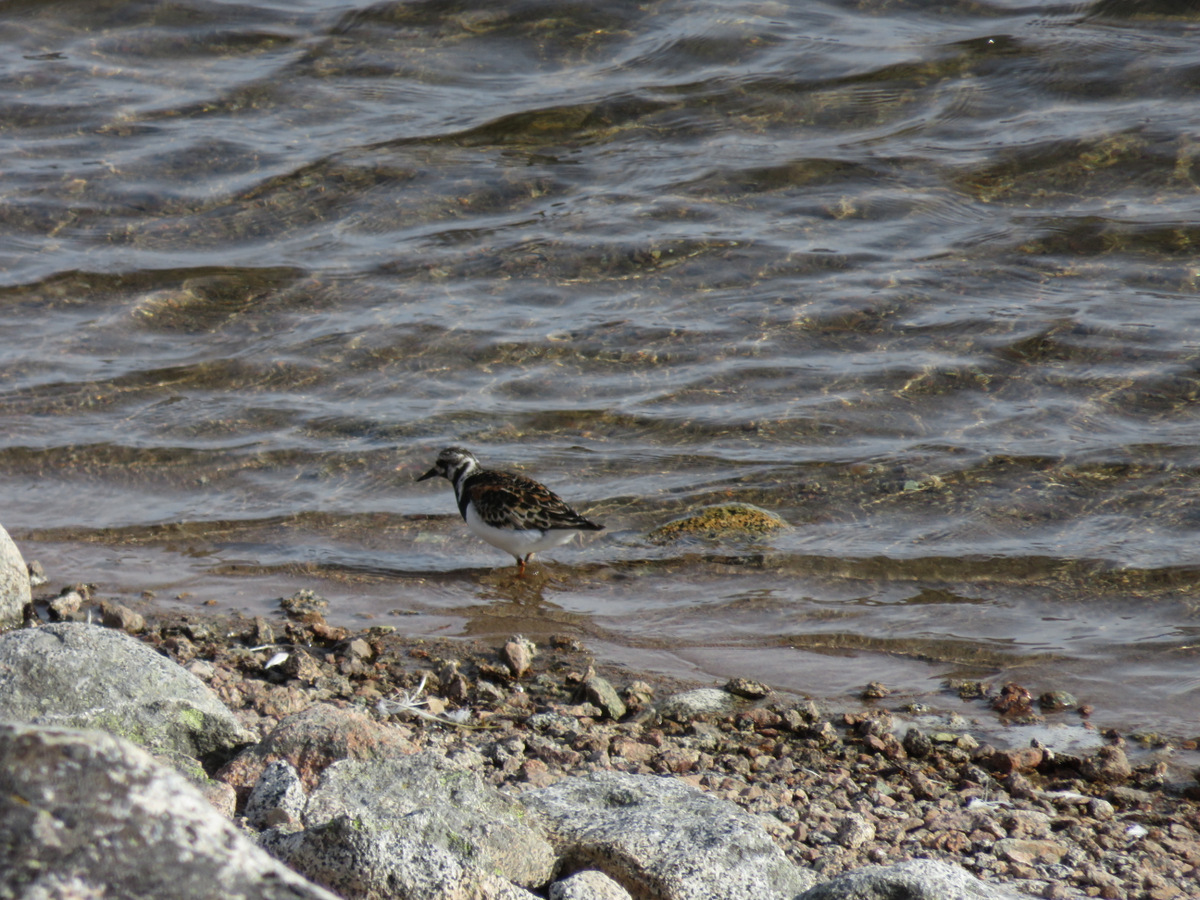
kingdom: Animalia
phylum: Chordata
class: Aves
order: Charadriiformes
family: Scolopacidae
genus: Arenaria
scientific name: Arenaria interpres
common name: Ruddy turnstone
